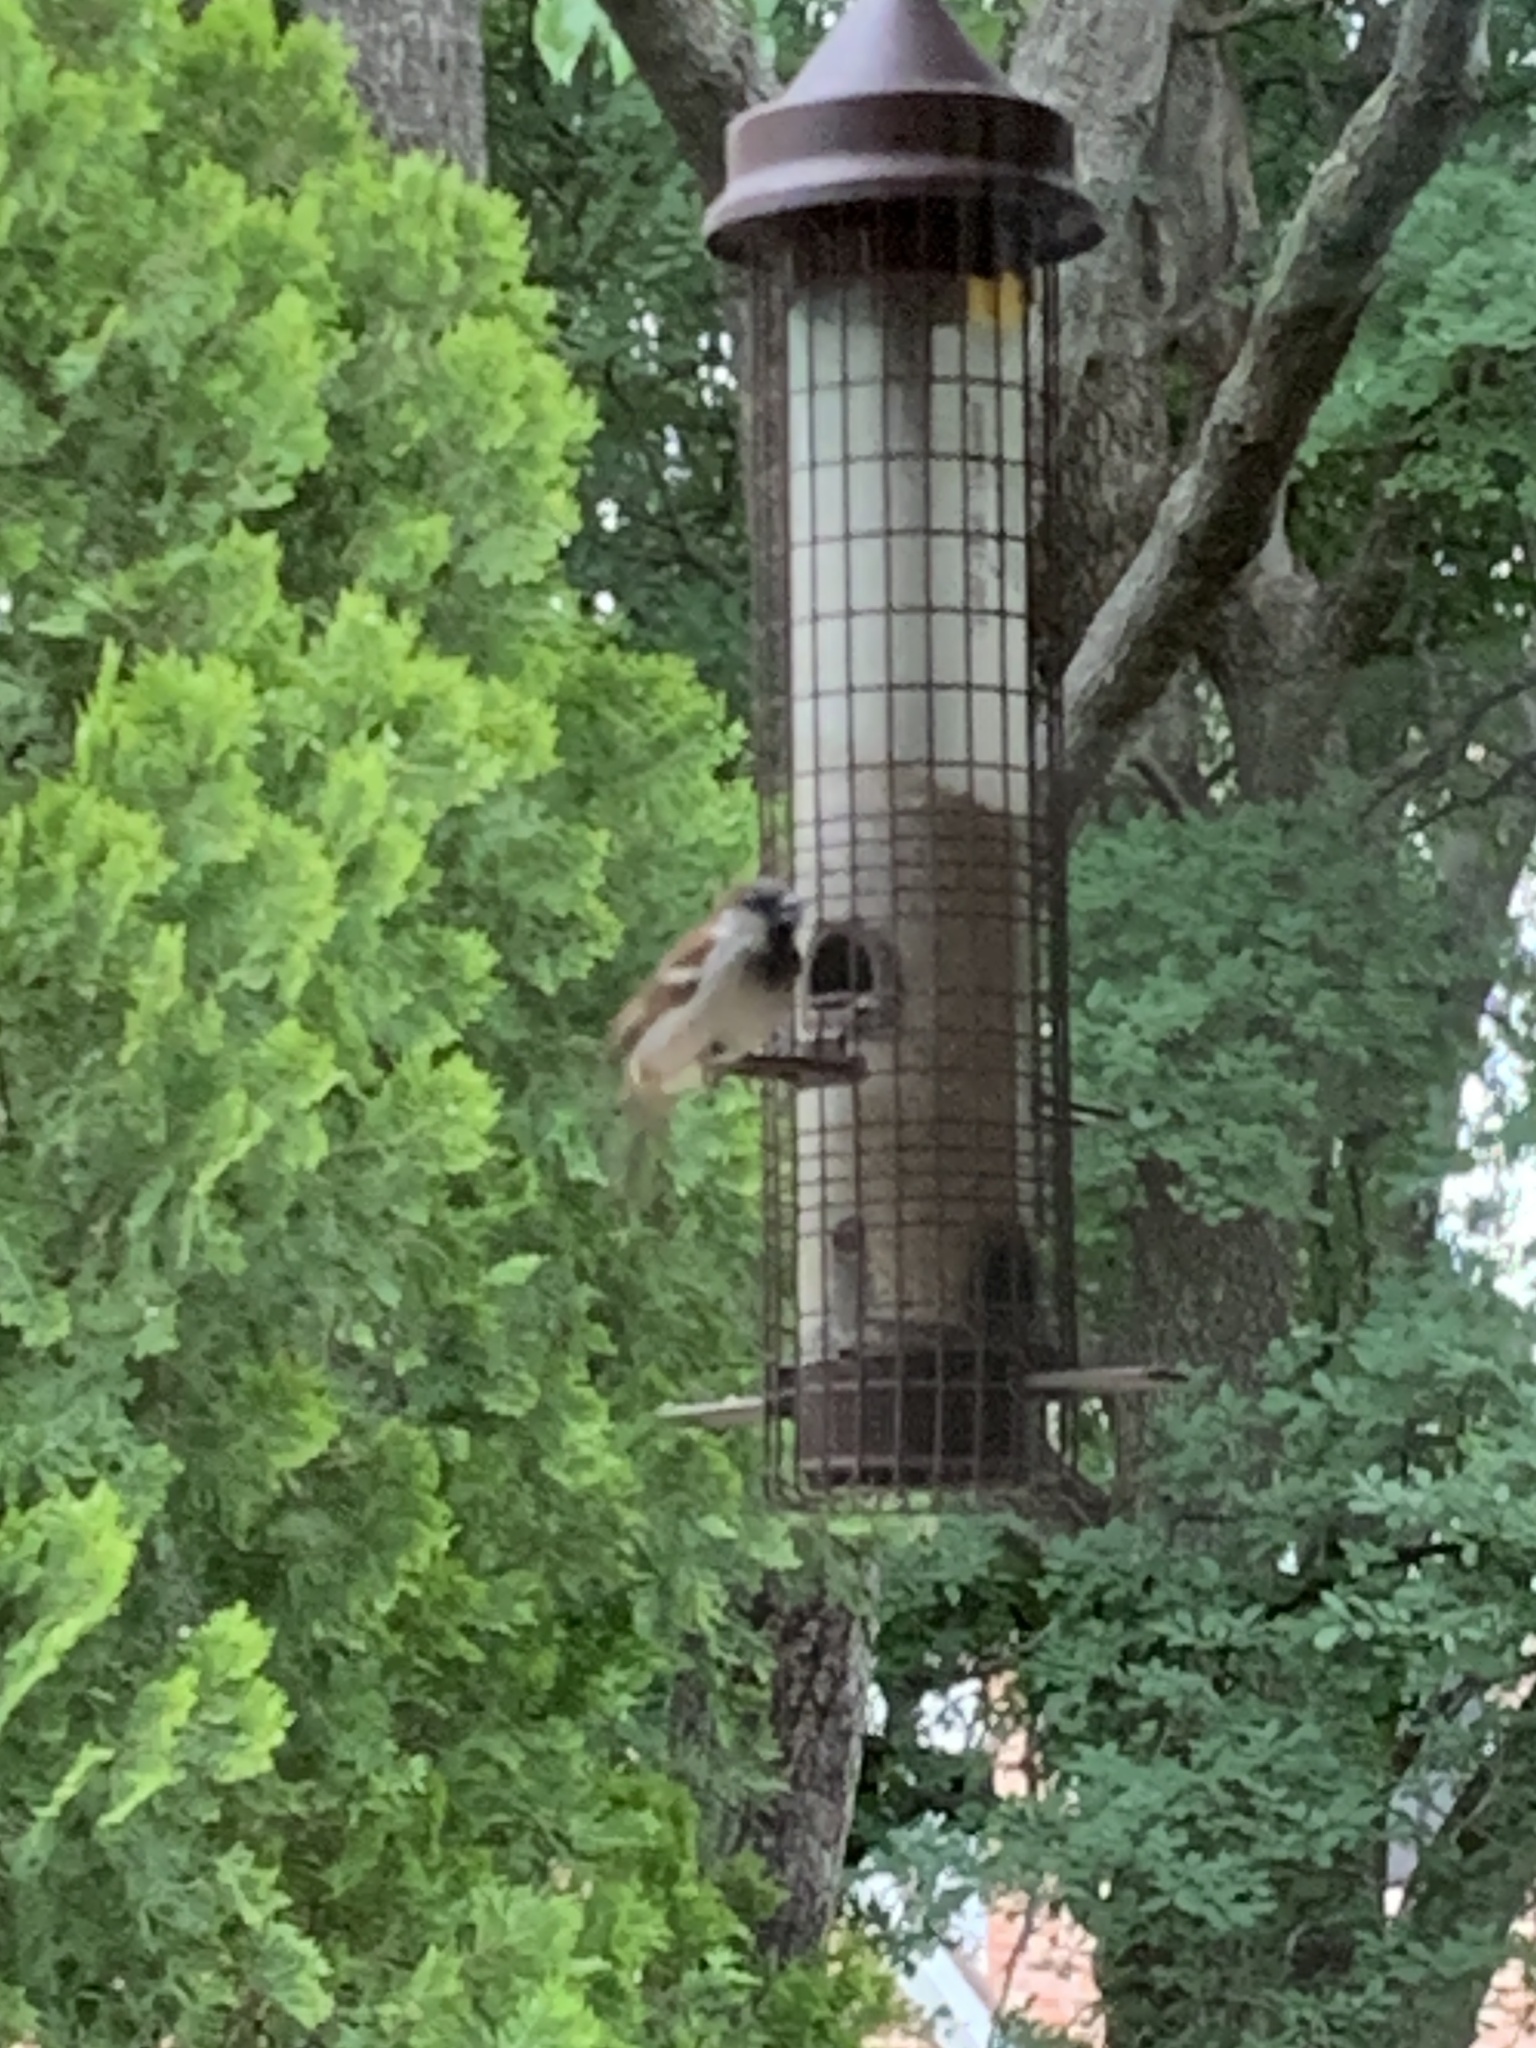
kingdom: Animalia
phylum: Chordata
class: Aves
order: Passeriformes
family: Passeridae
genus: Passer
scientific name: Passer domesticus
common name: House sparrow
